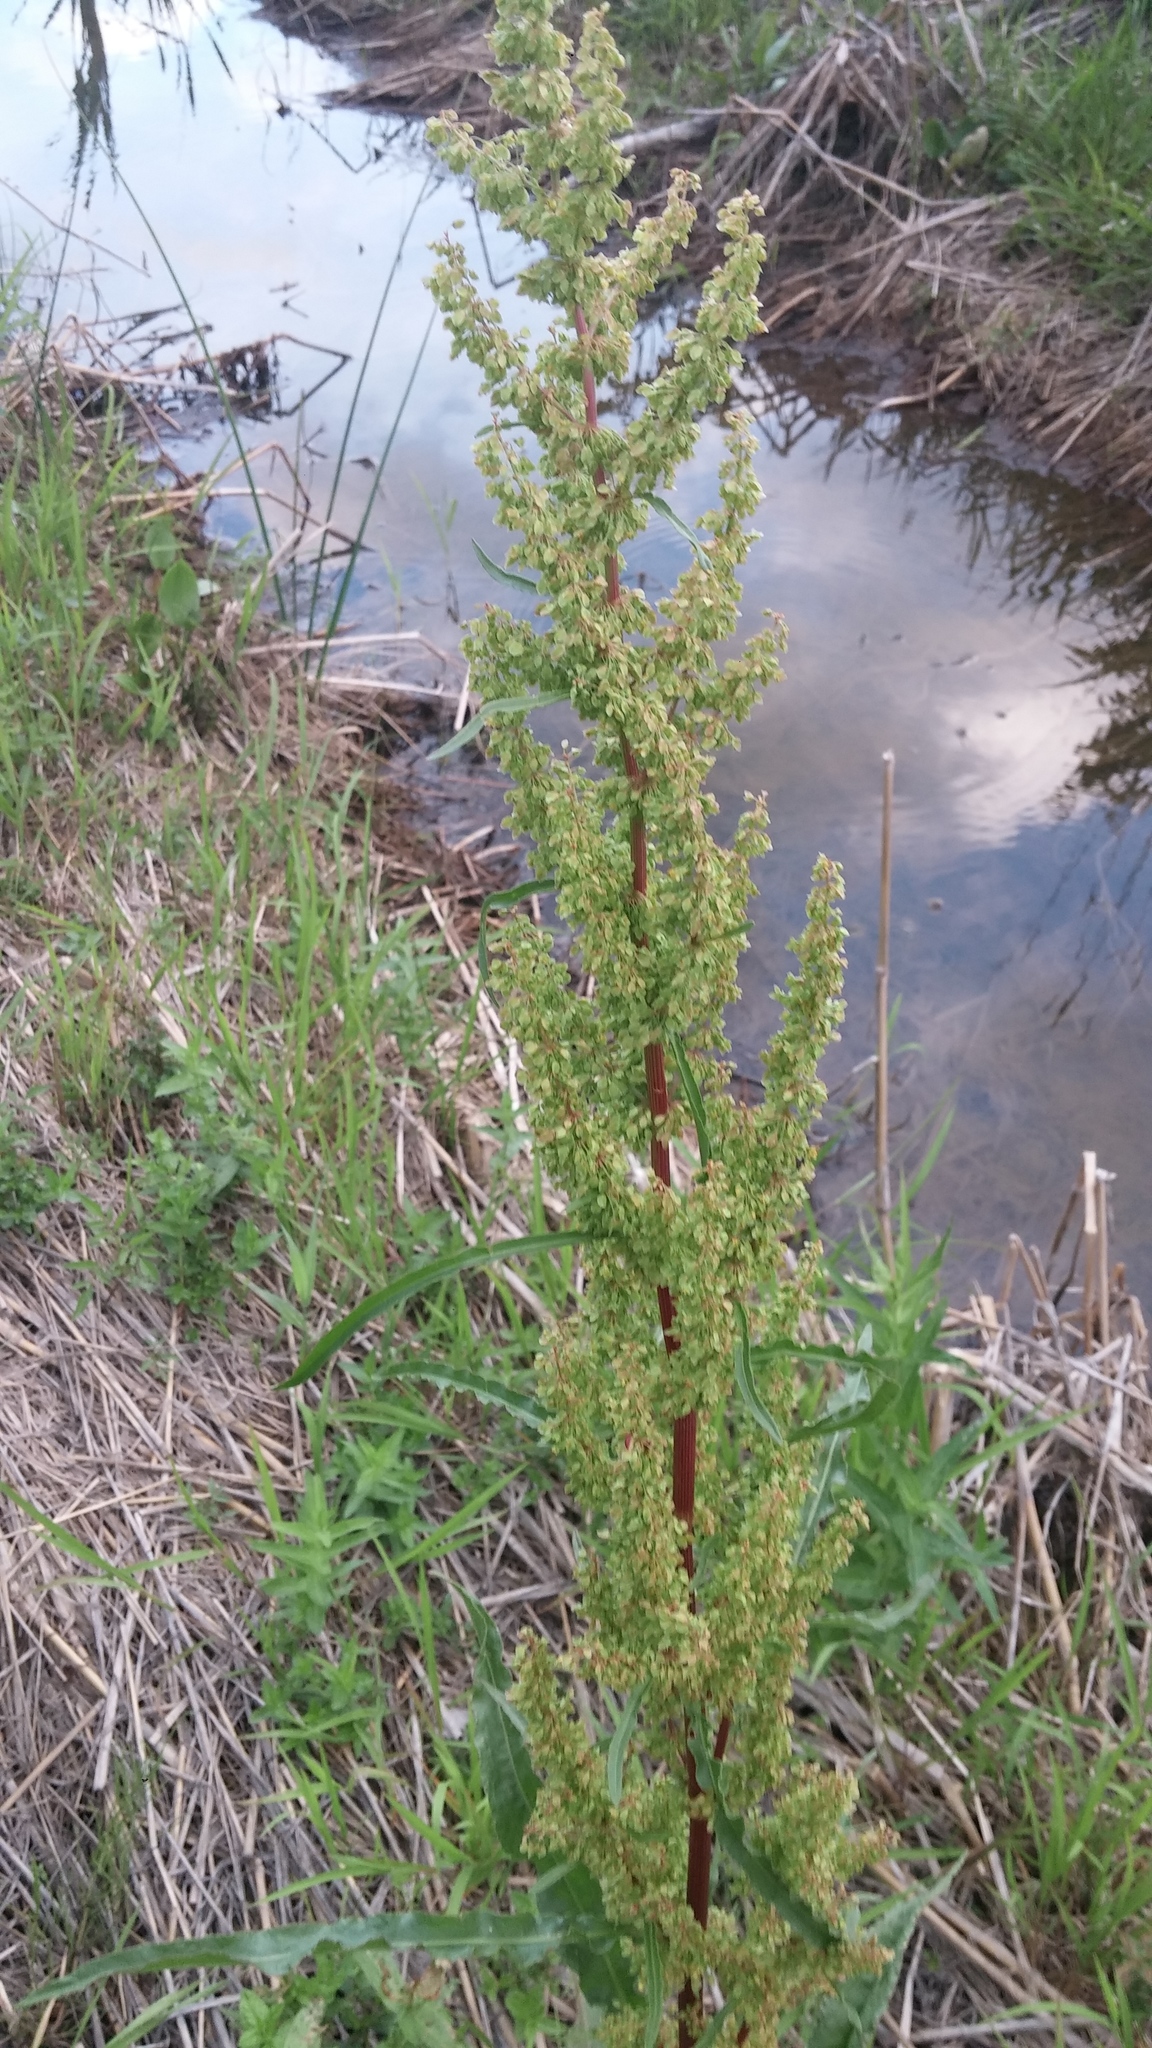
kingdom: Plantae
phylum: Tracheophyta
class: Magnoliopsida
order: Caryophyllales
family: Polygonaceae
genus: Rumex
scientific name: Rumex crispus
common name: Curled dock
